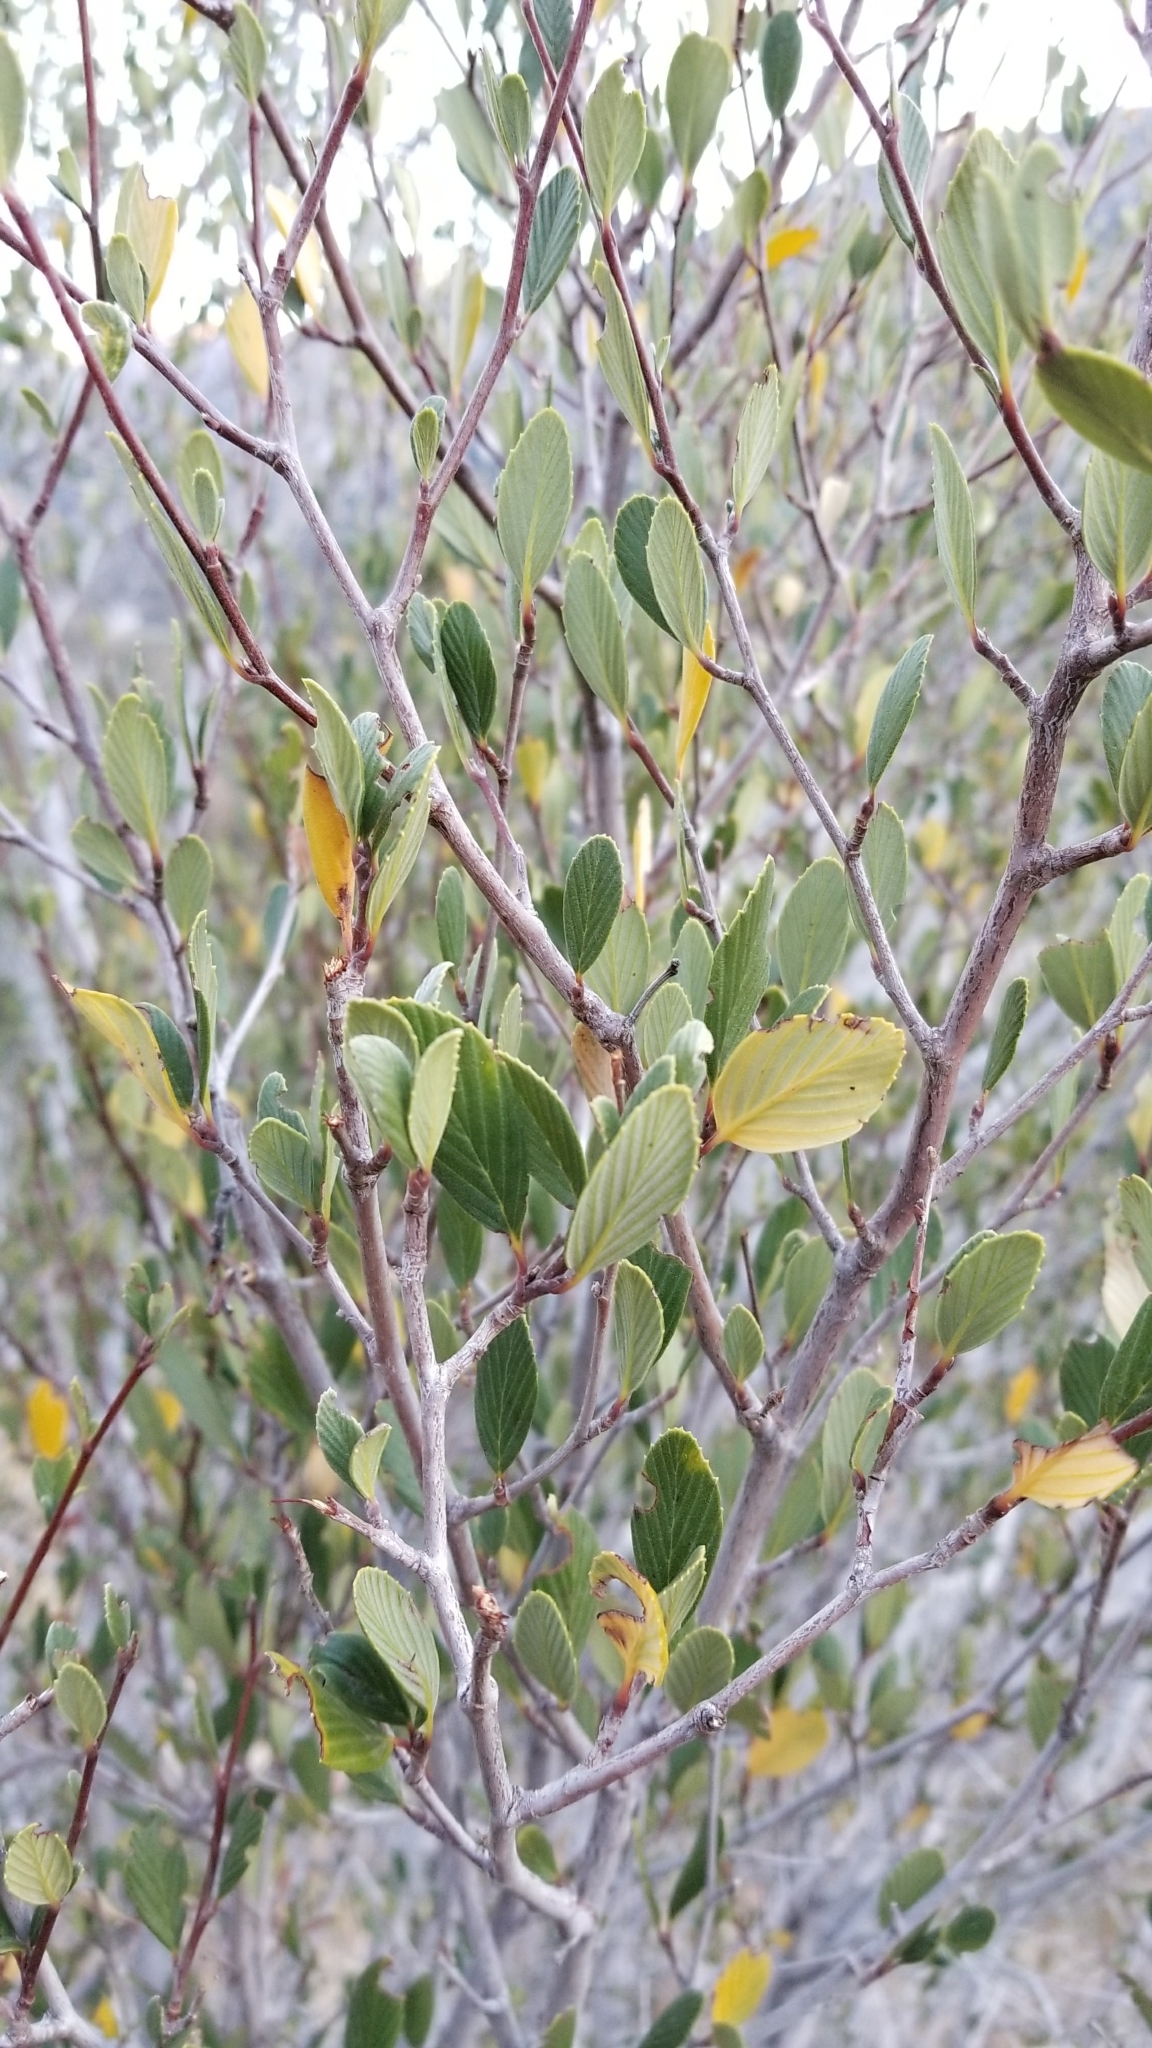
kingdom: Plantae
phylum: Tracheophyta
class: Magnoliopsida
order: Rosales
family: Rosaceae
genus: Cercocarpus
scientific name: Cercocarpus betuloides
